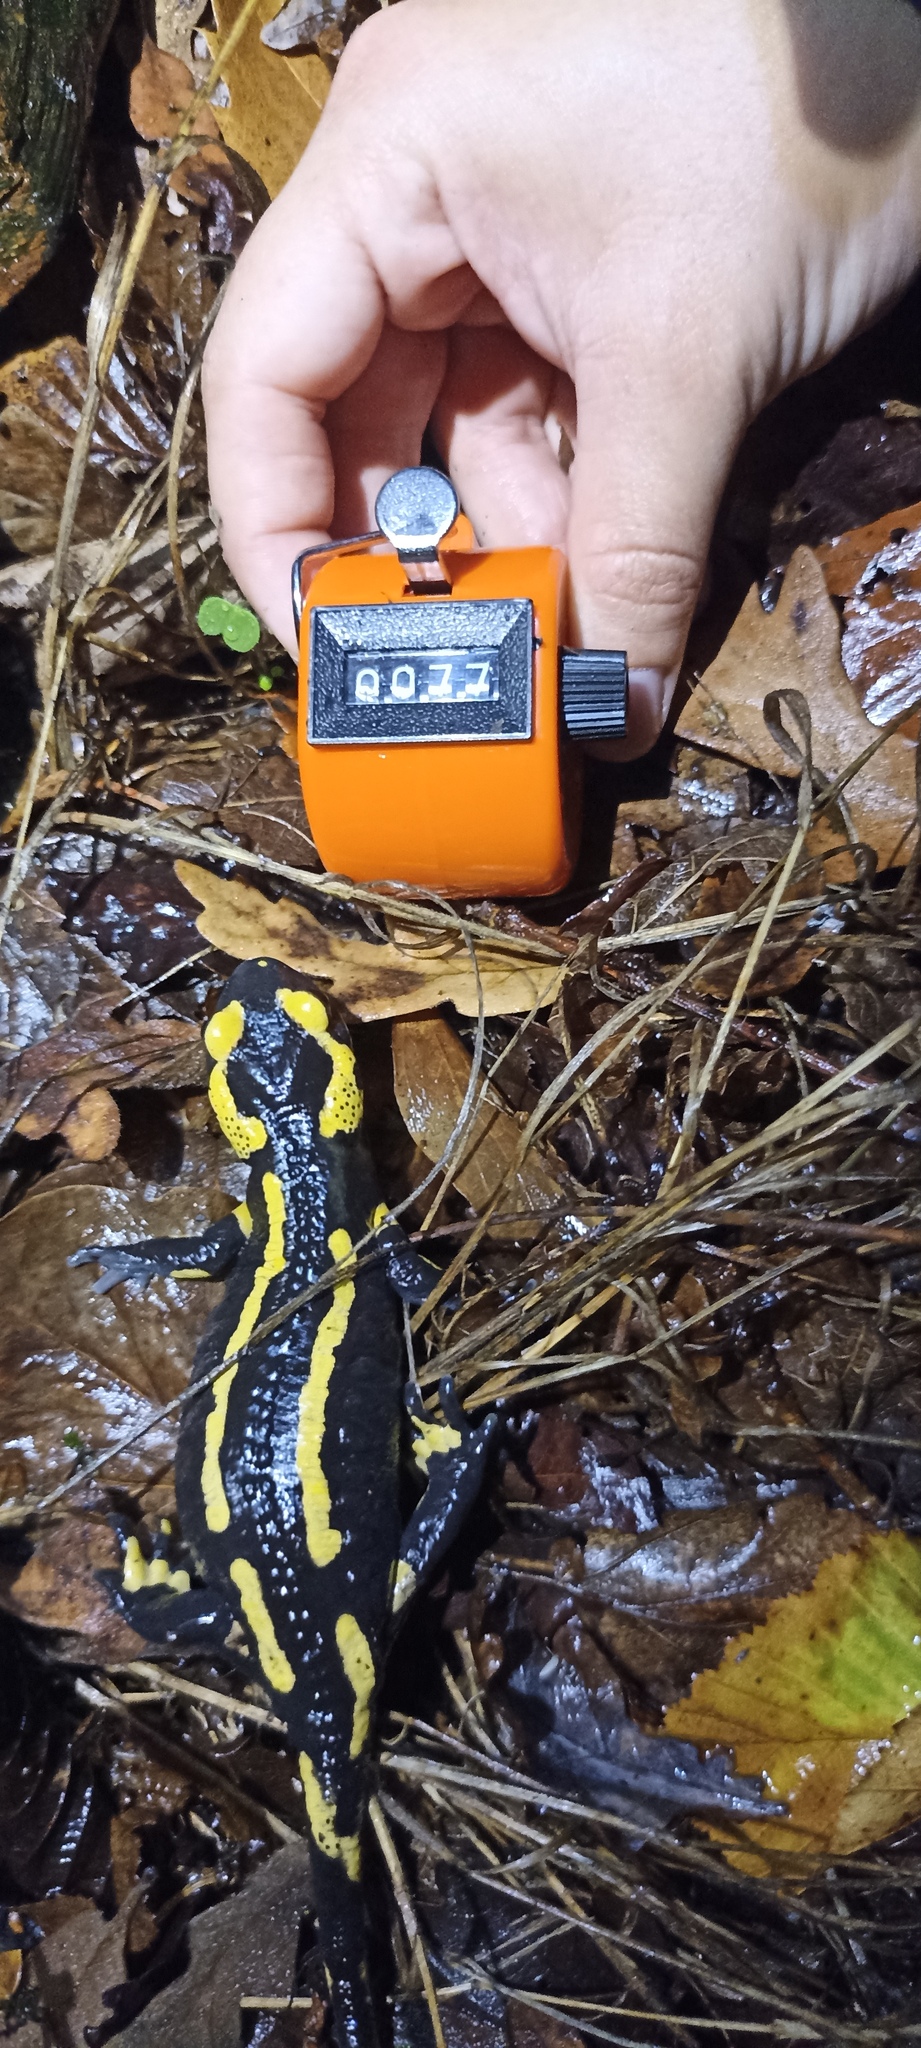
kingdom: Animalia
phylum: Chordata
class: Amphibia
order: Caudata
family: Salamandridae
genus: Salamandra
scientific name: Salamandra salamandra
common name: Fire salamander
